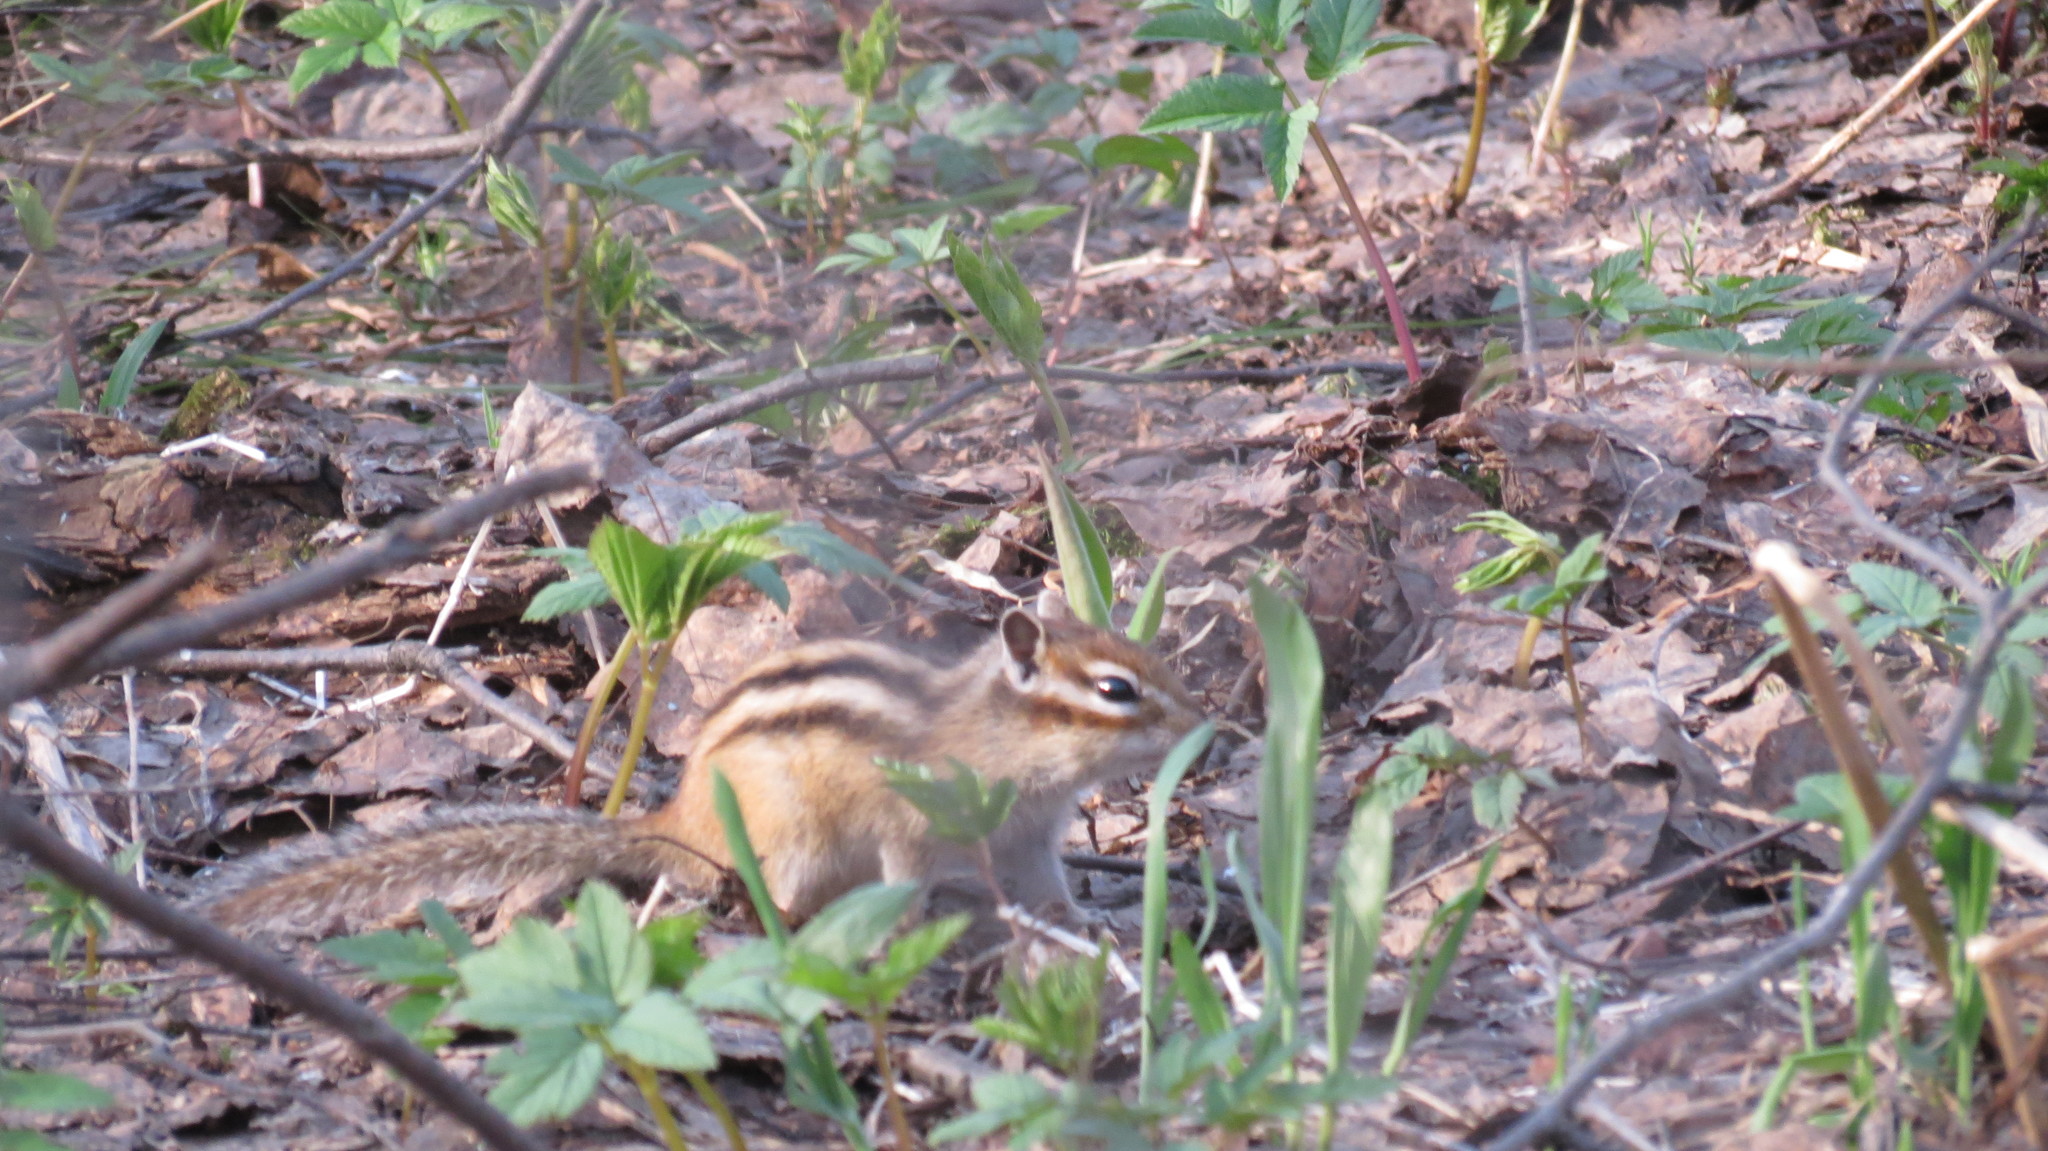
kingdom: Animalia
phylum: Chordata
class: Mammalia
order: Rodentia
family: Sciuridae
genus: Tamias
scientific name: Tamias sibiricus
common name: Siberian chipmunk
